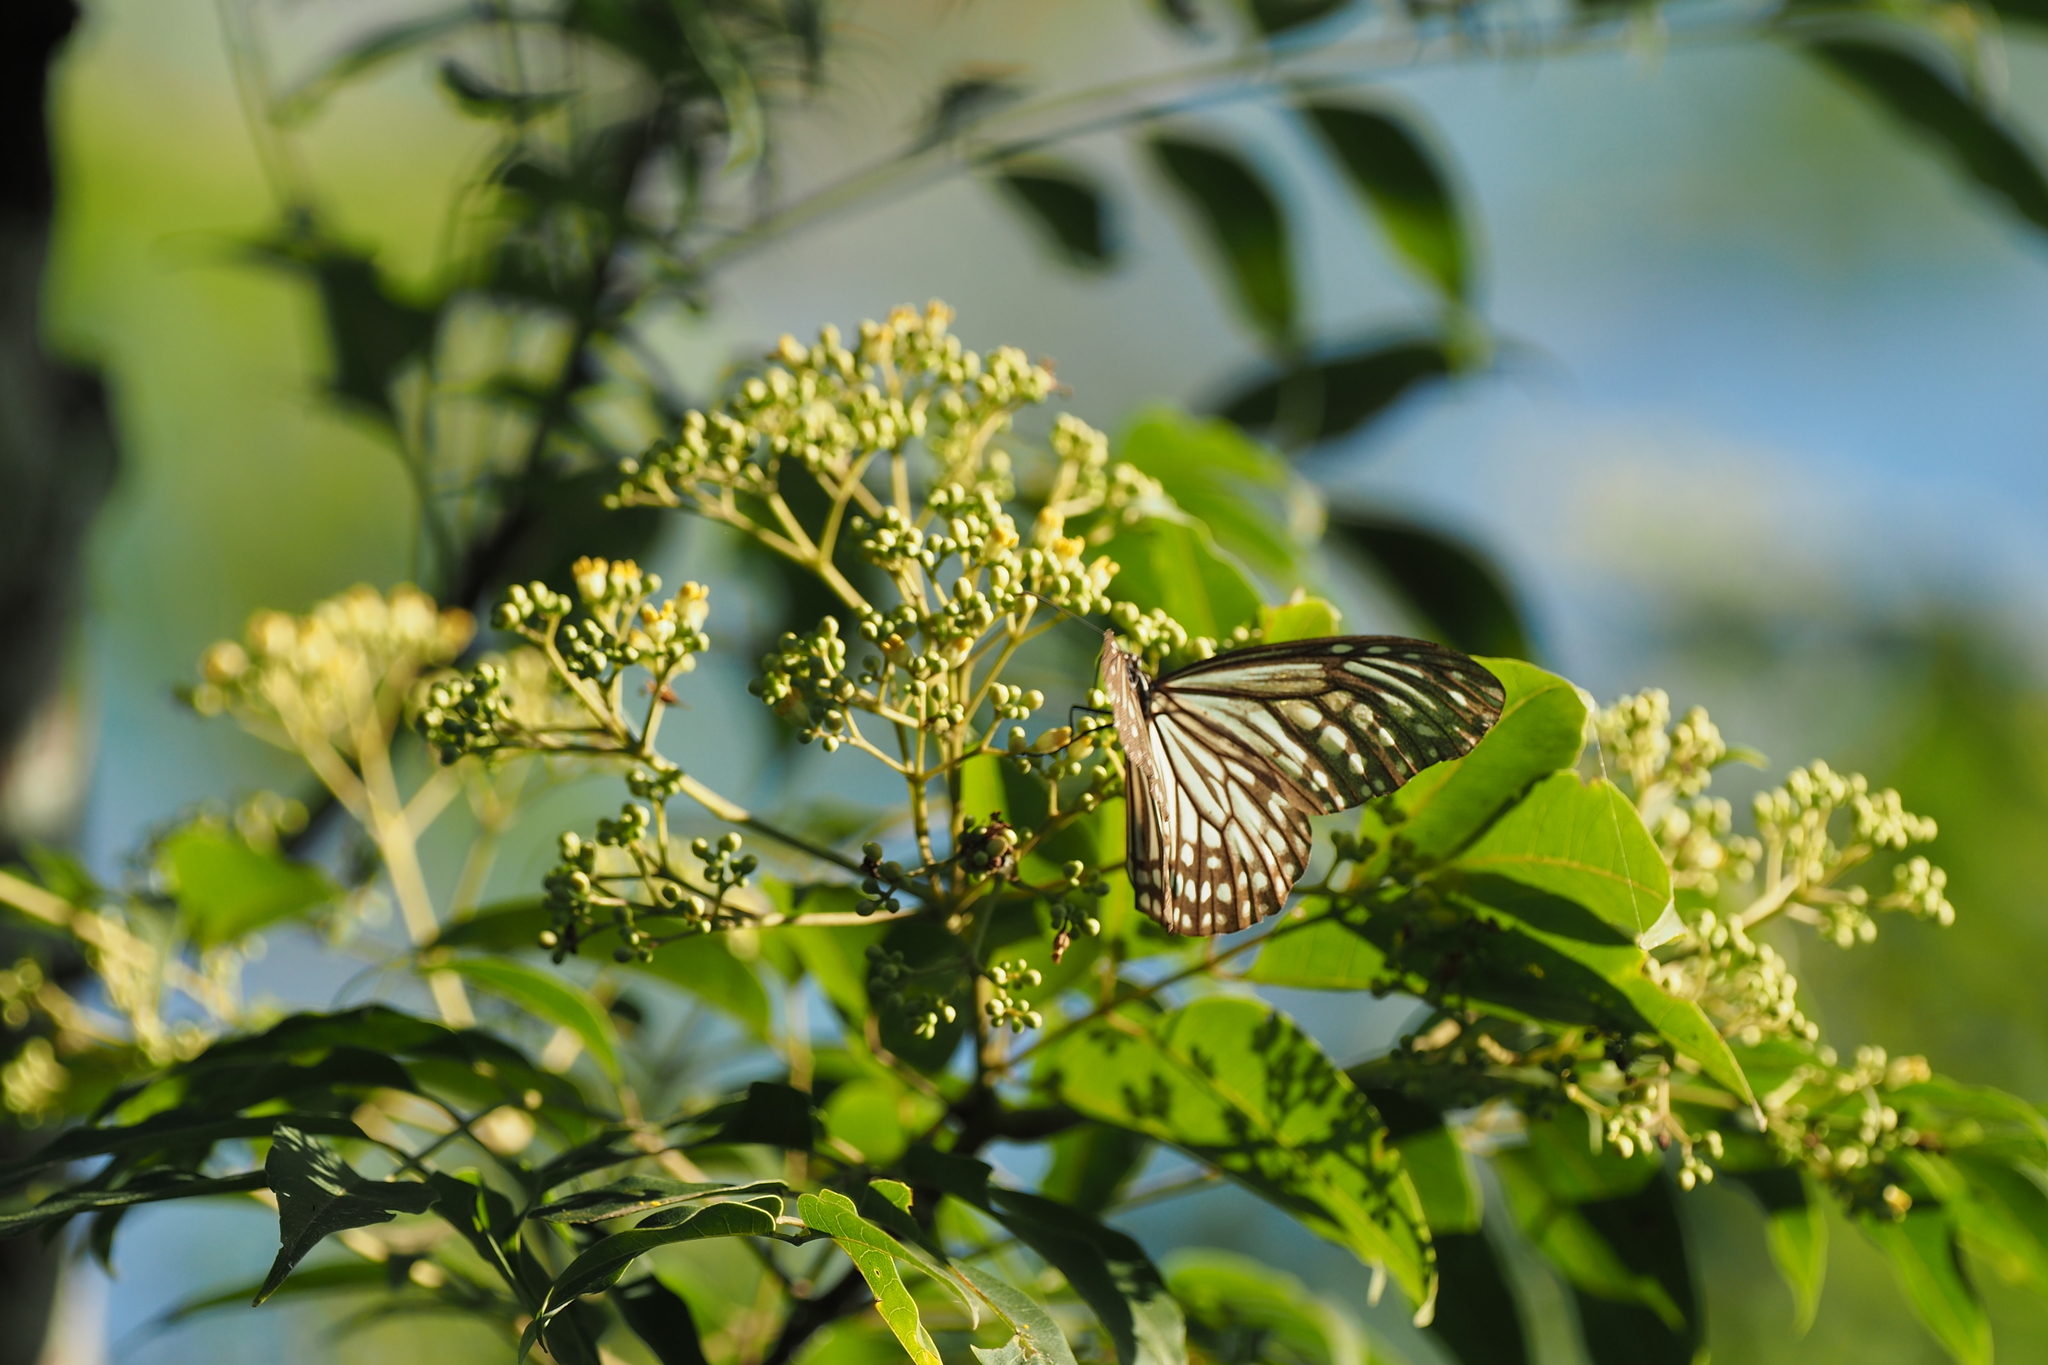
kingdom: Animalia
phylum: Arthropoda
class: Insecta
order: Lepidoptera
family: Nymphalidae
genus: Parantica
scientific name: Parantica aglea
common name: Glassy tiger
